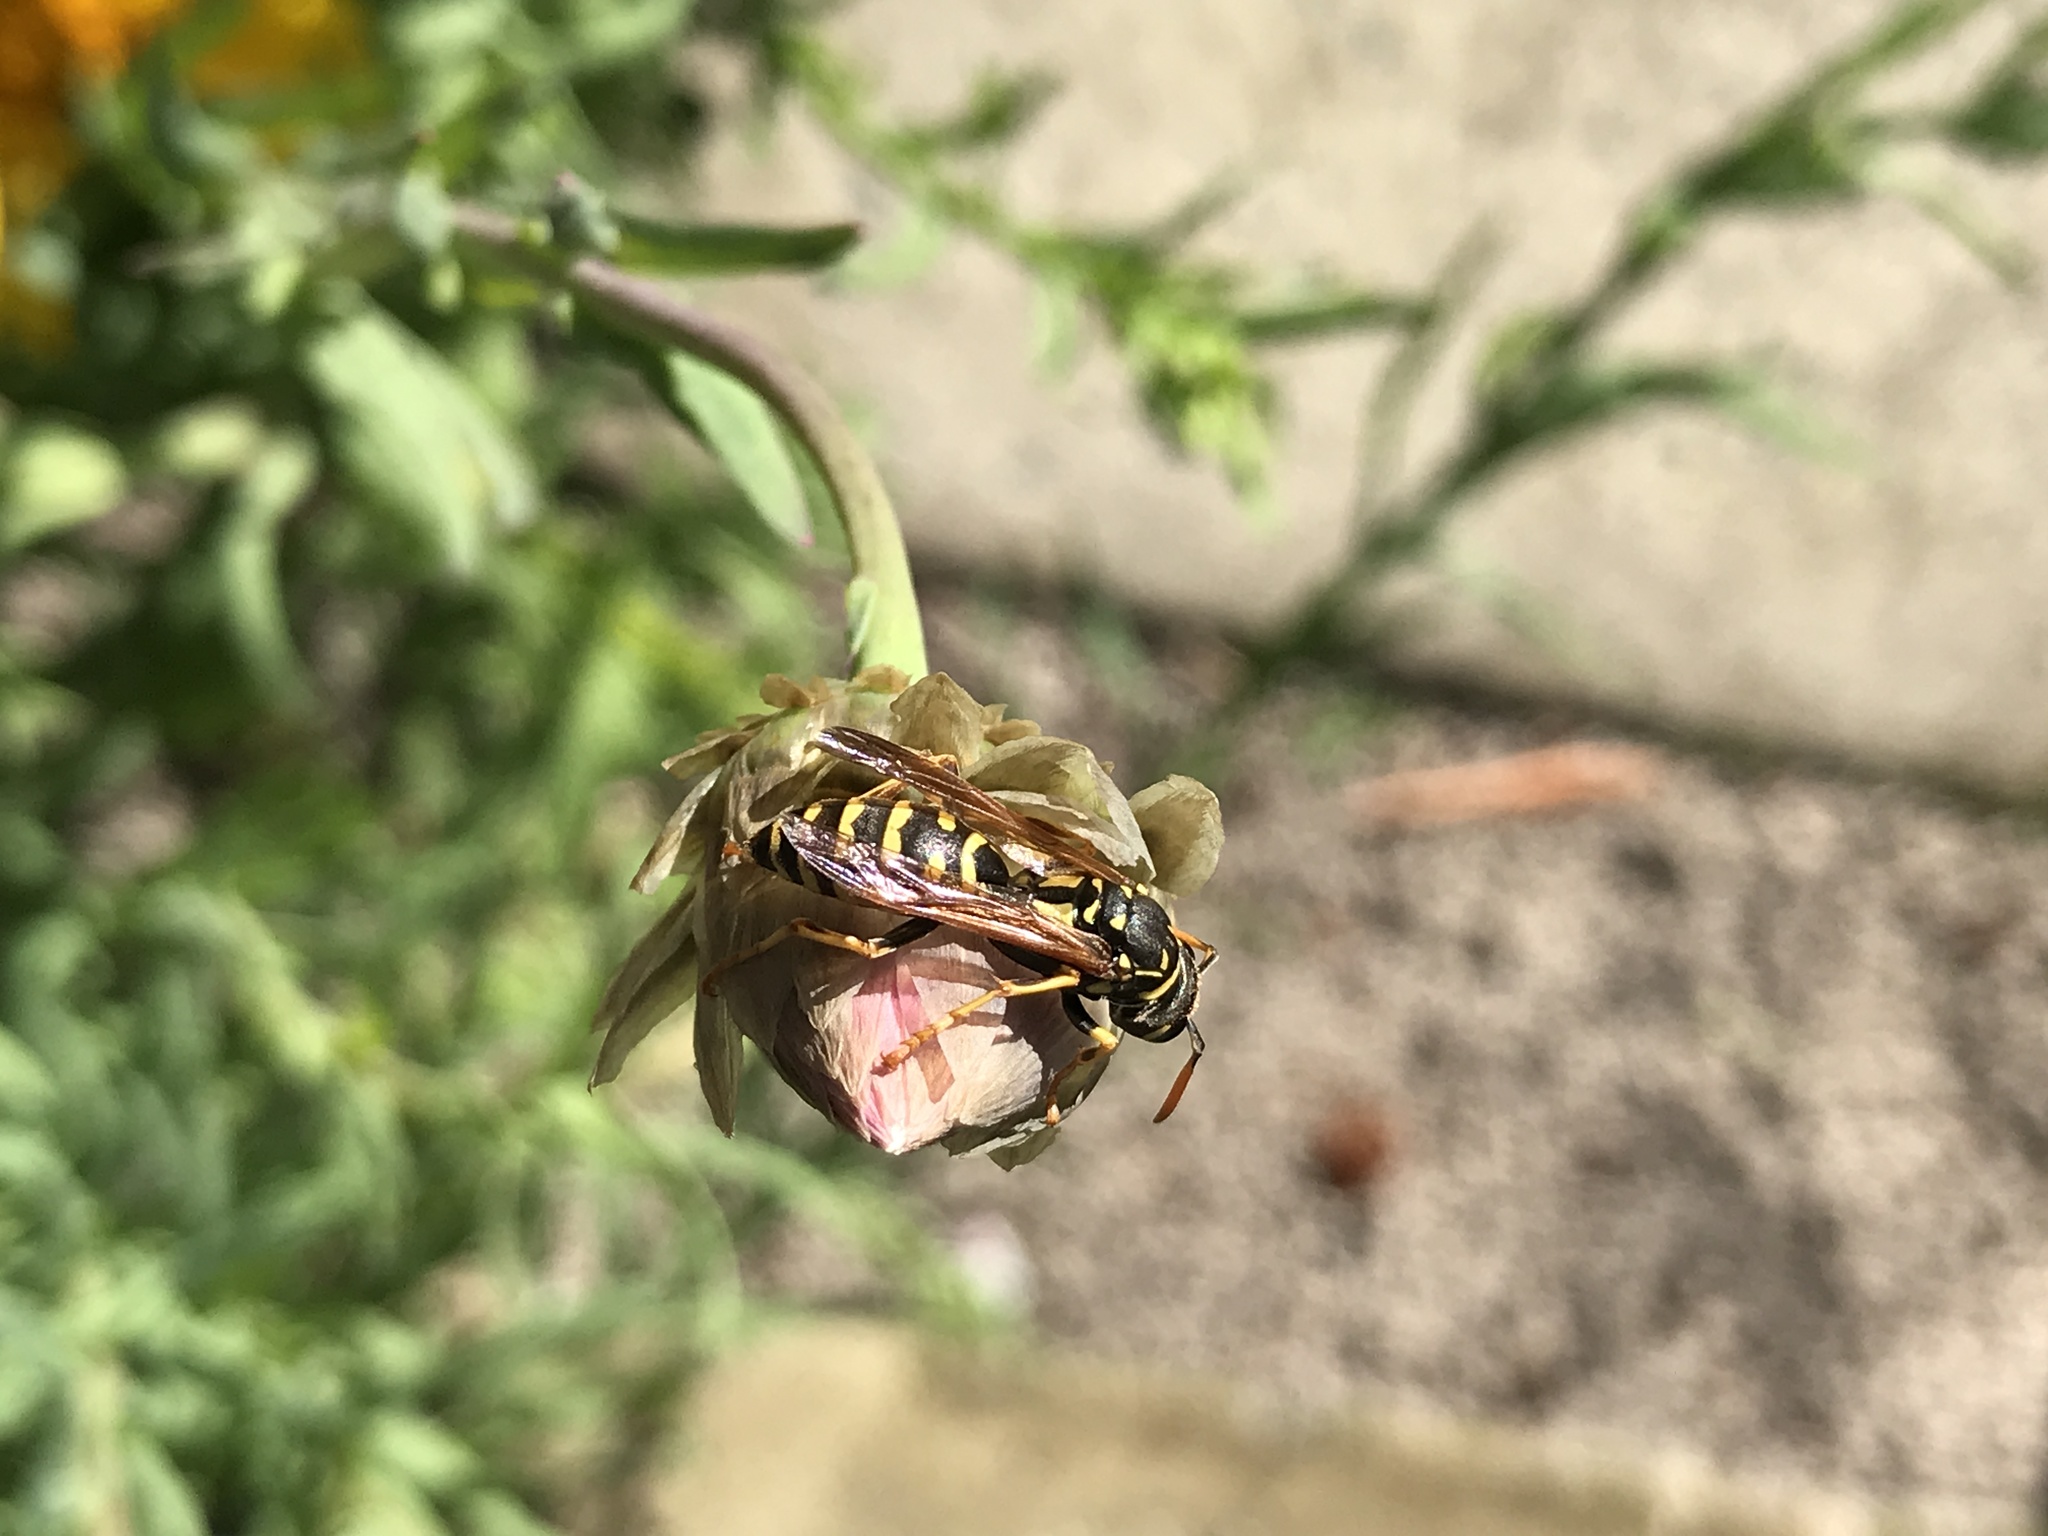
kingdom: Animalia
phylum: Arthropoda
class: Insecta
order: Hymenoptera
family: Eumenidae
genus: Polistes
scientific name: Polistes dominula
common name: Paper wasp
